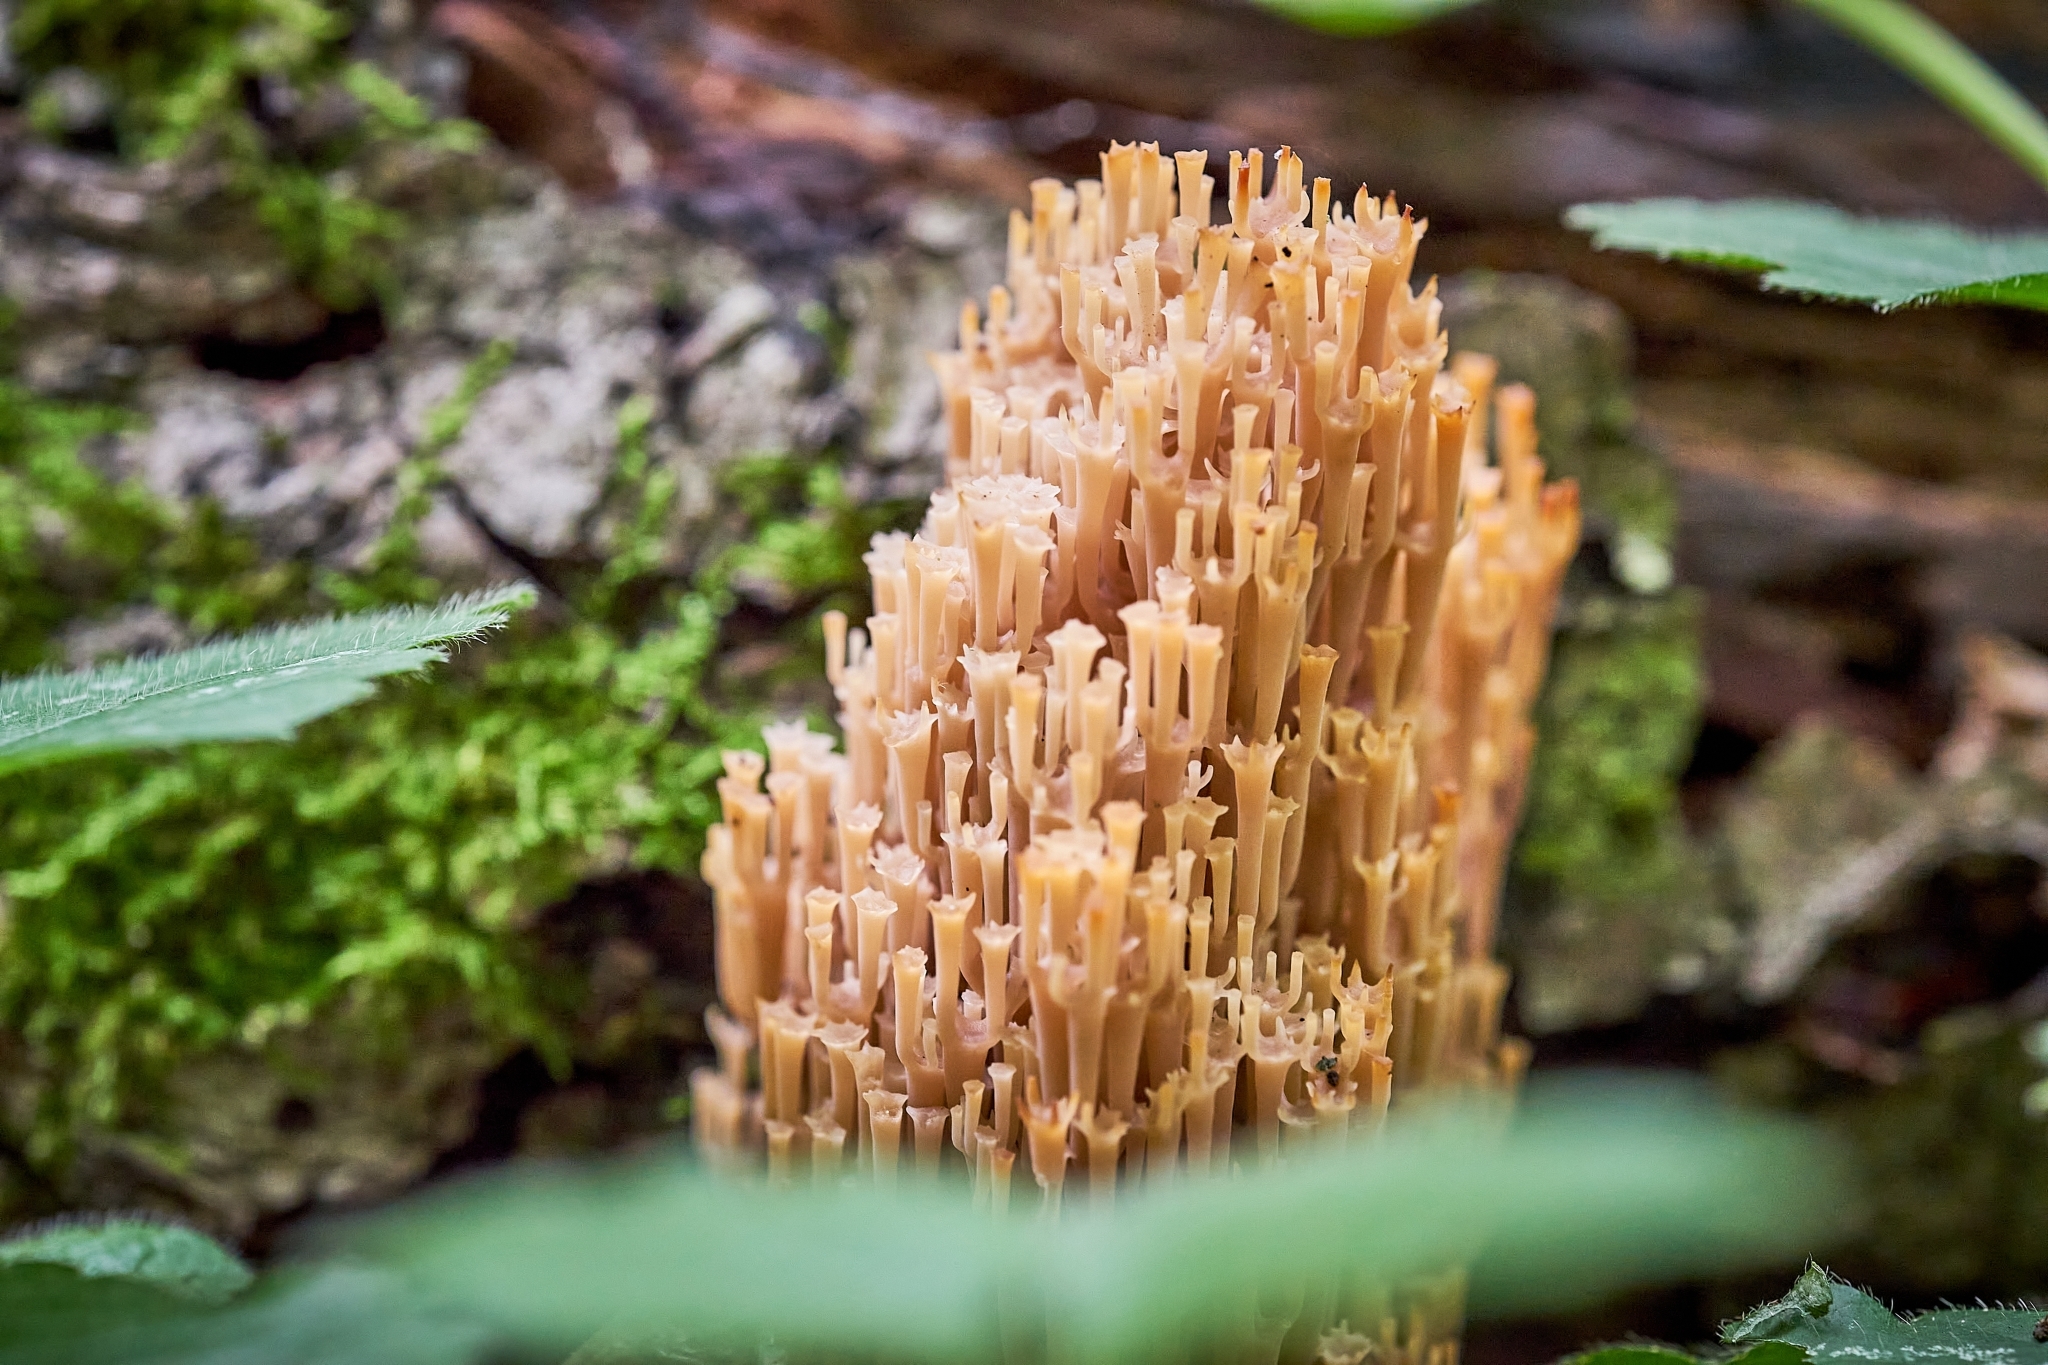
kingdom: Fungi
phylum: Basidiomycota
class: Agaricomycetes
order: Russulales
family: Auriscalpiaceae
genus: Artomyces
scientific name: Artomyces pyxidatus
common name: Crown-tipped coral fungus
